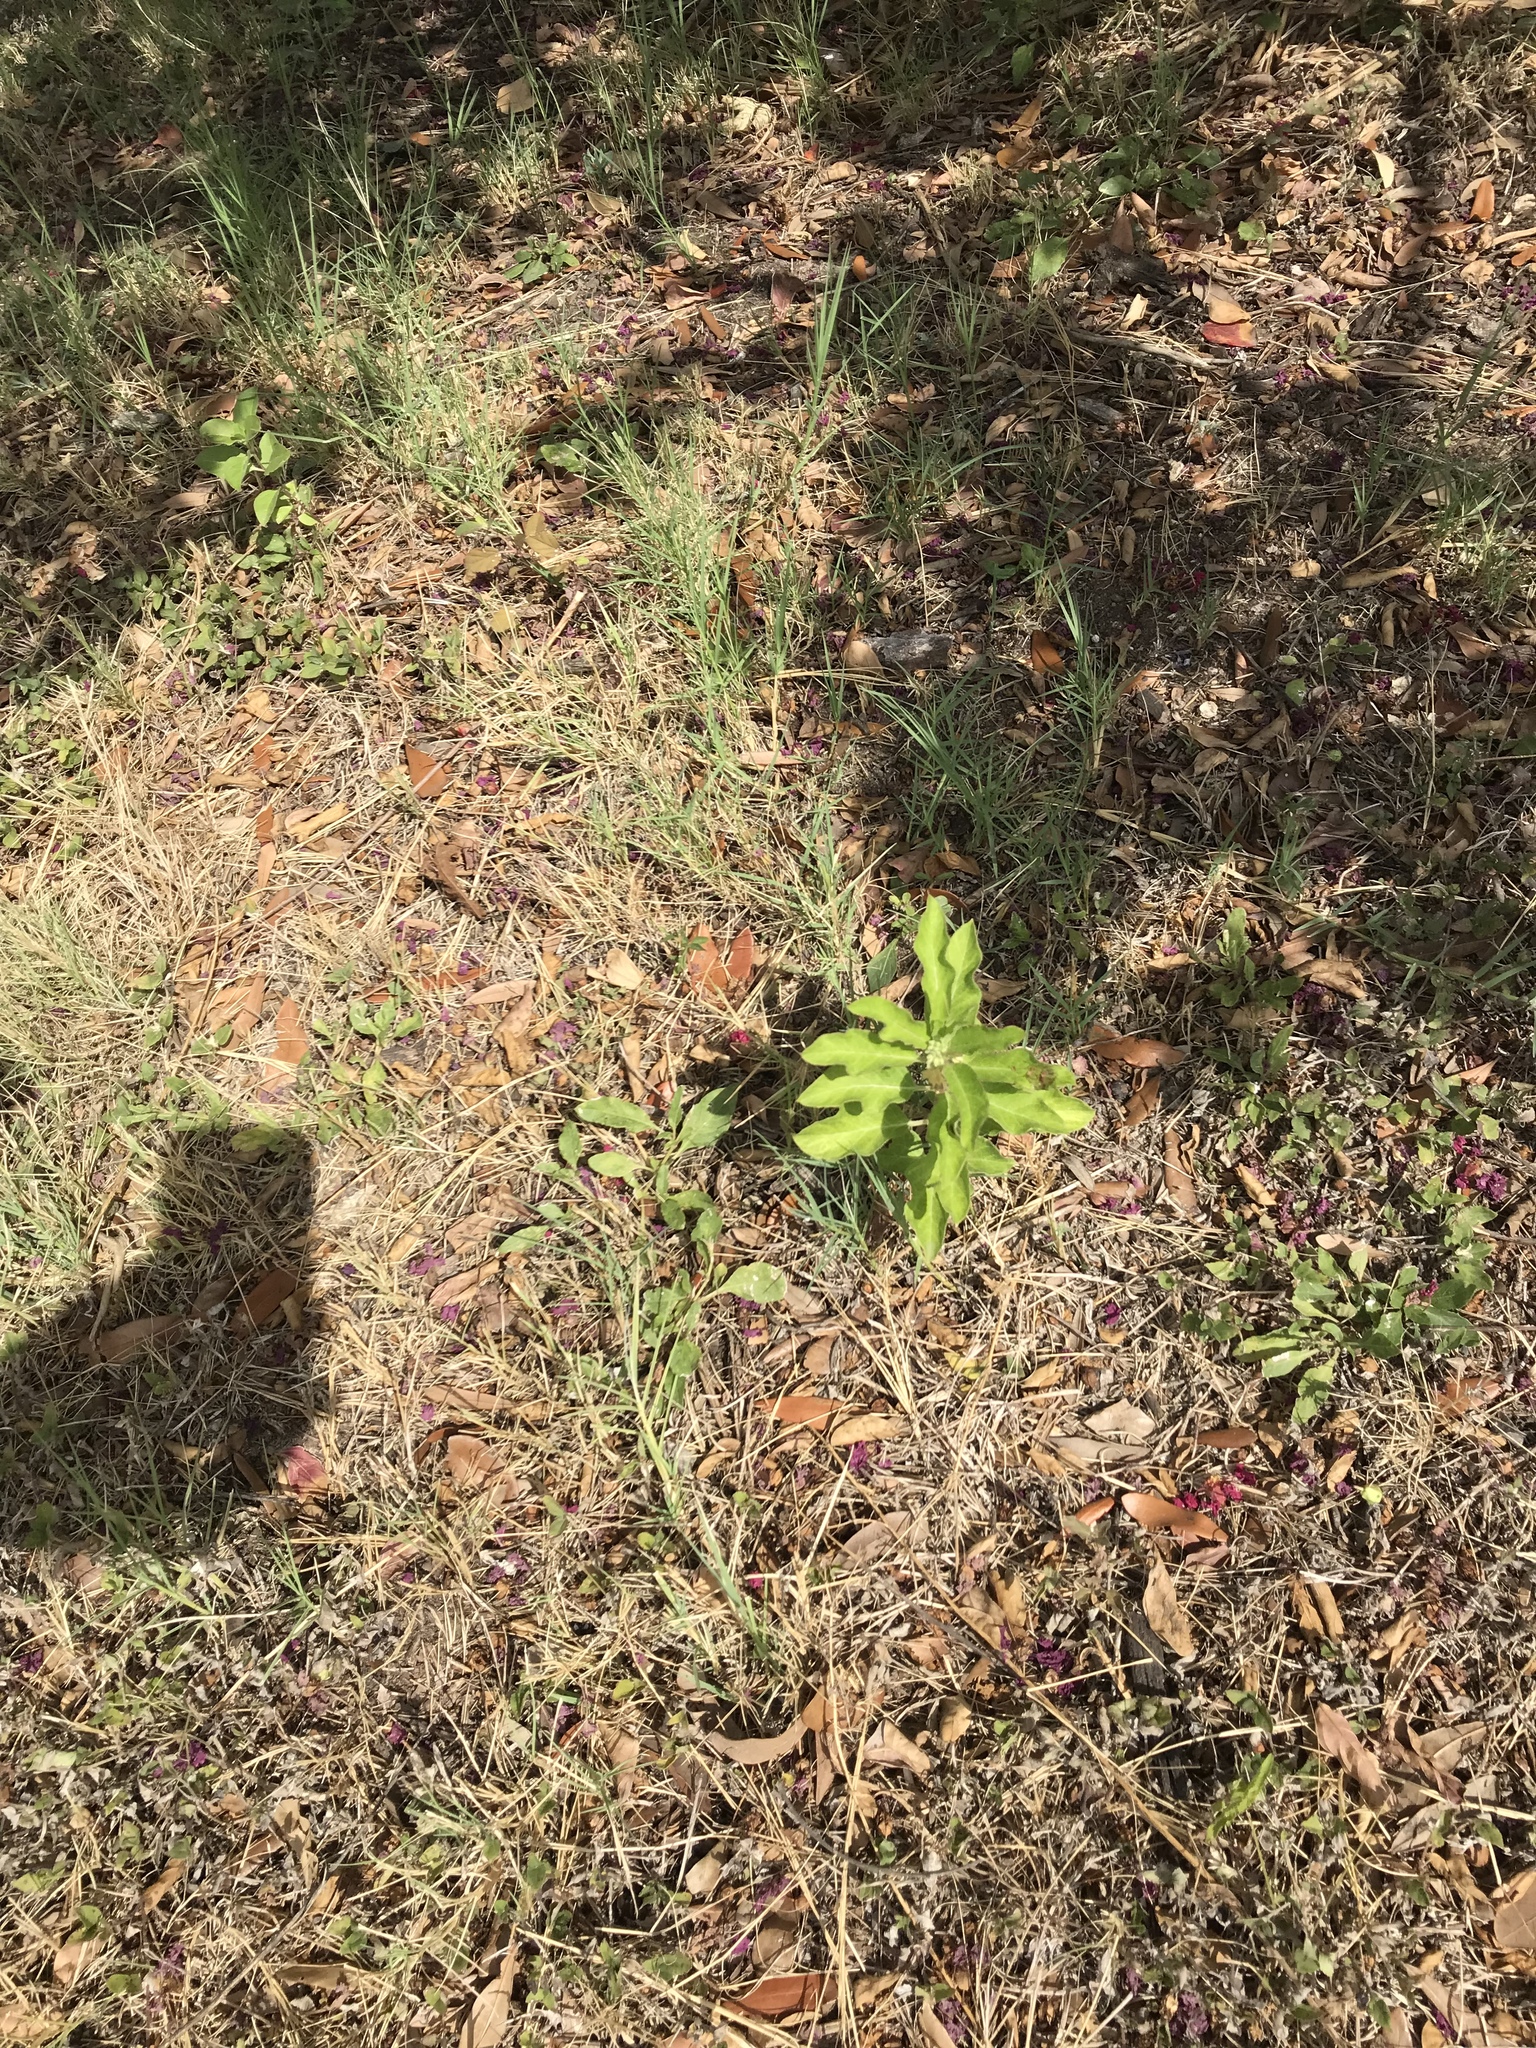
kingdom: Plantae
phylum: Tracheophyta
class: Magnoliopsida
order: Gentianales
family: Apocynaceae
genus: Asclepias
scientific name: Asclepias oenotheroides
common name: Zizotes milkweed
